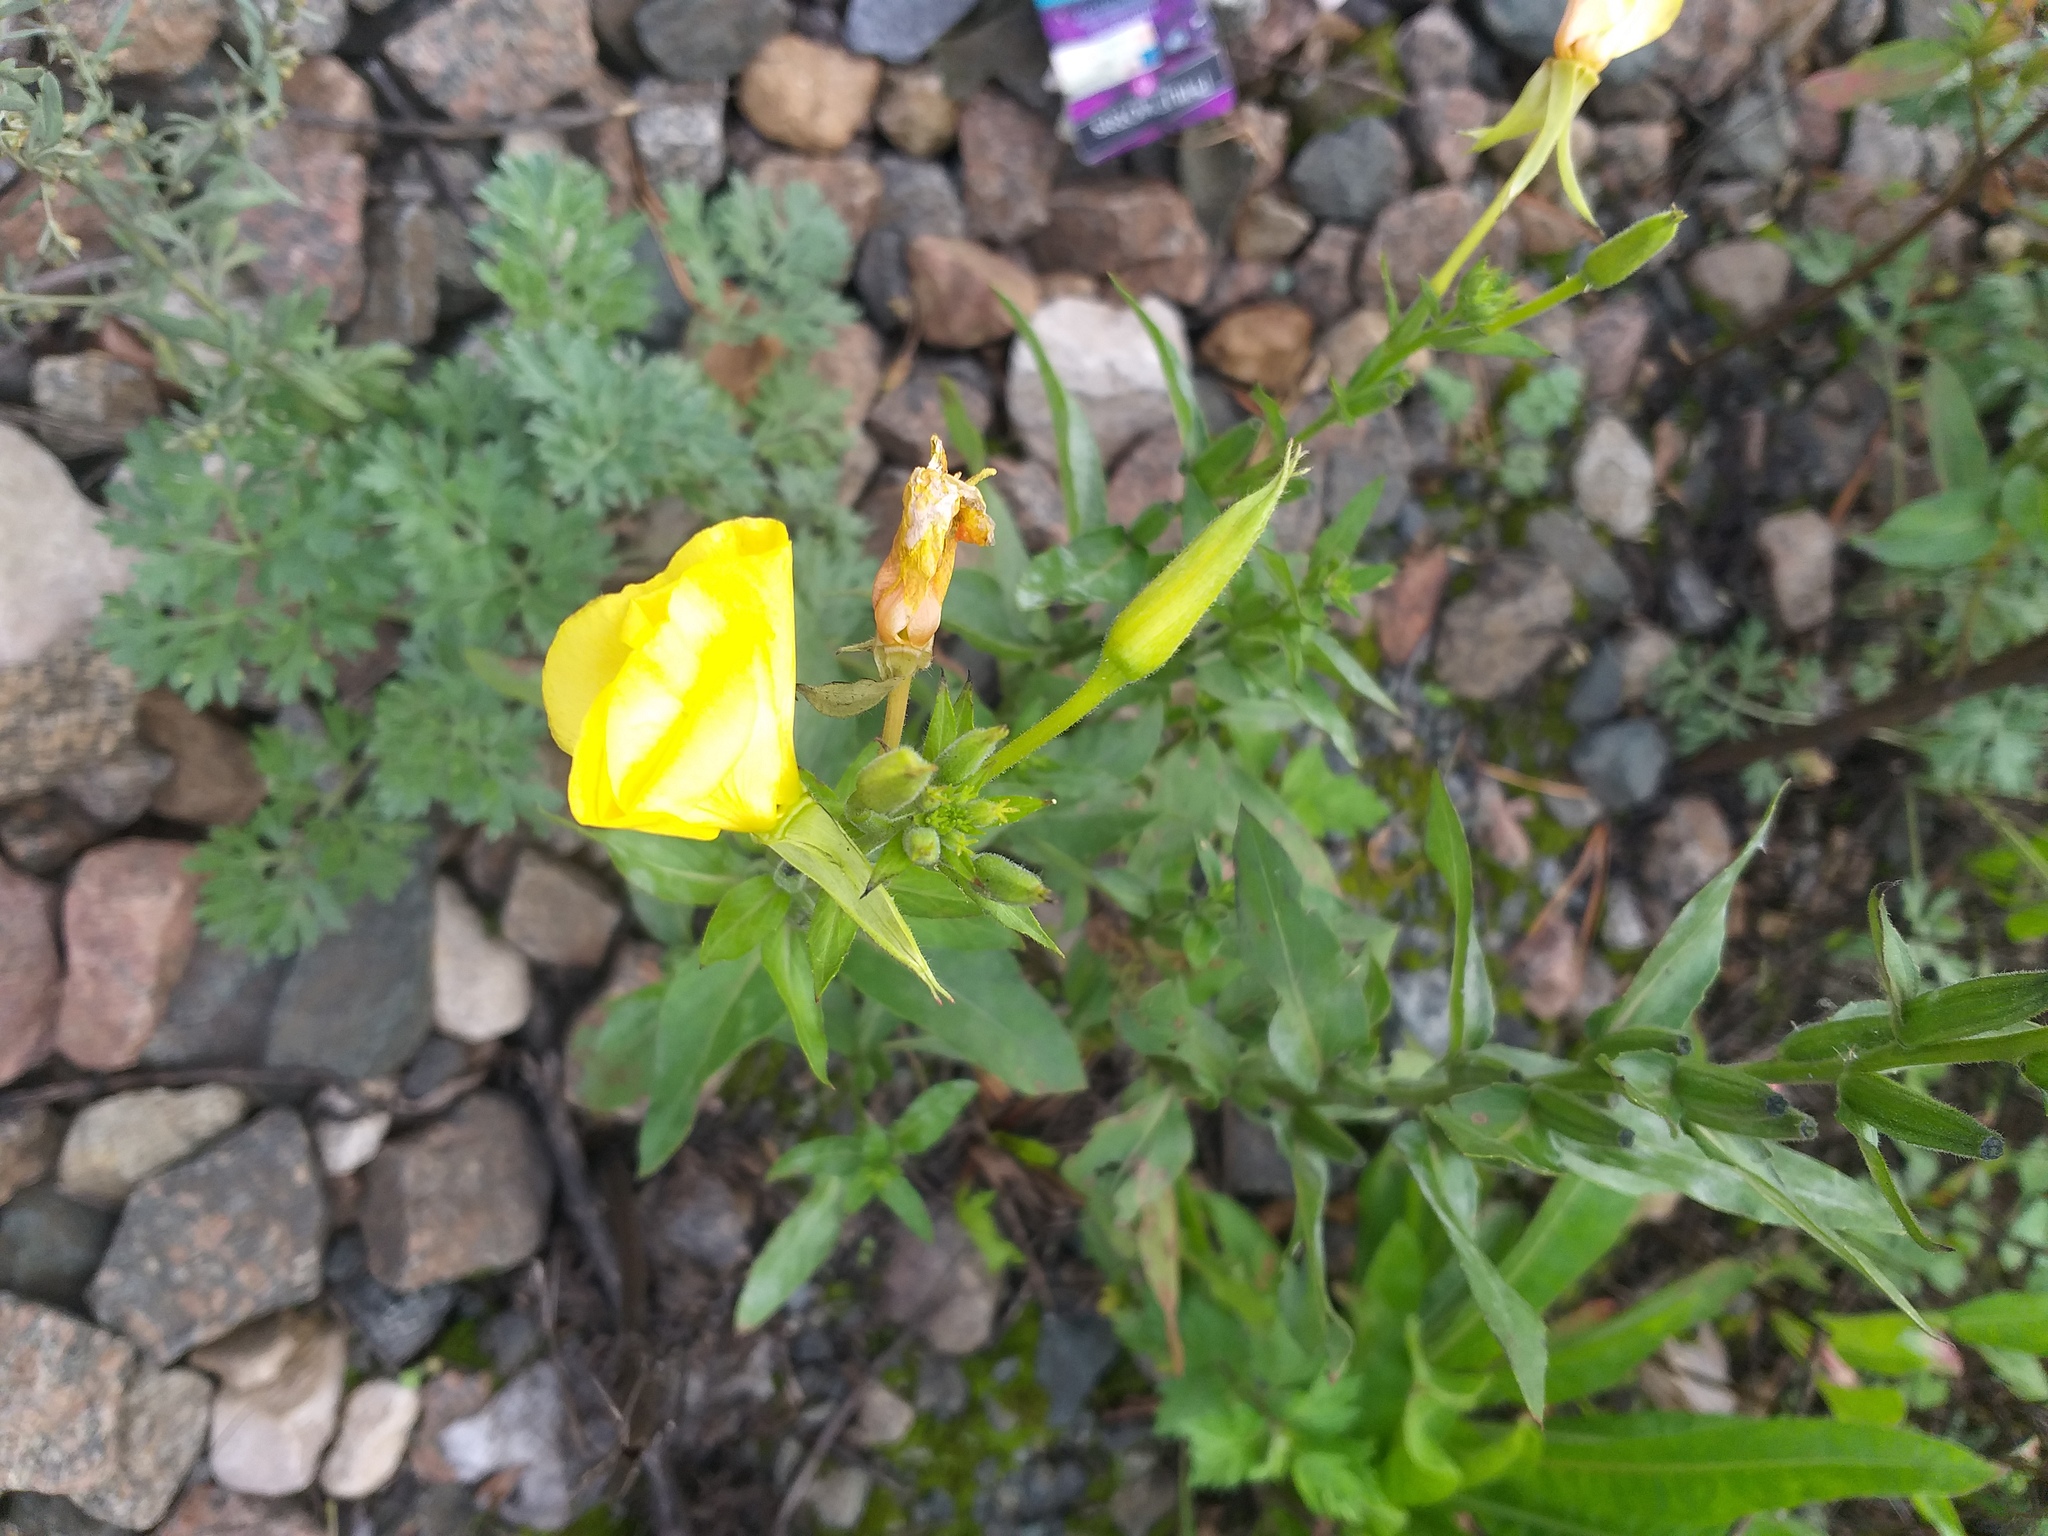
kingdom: Plantae
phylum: Tracheophyta
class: Magnoliopsida
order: Myrtales
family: Onagraceae
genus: Oenothera
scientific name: Oenothera biennis
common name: Common evening-primrose
